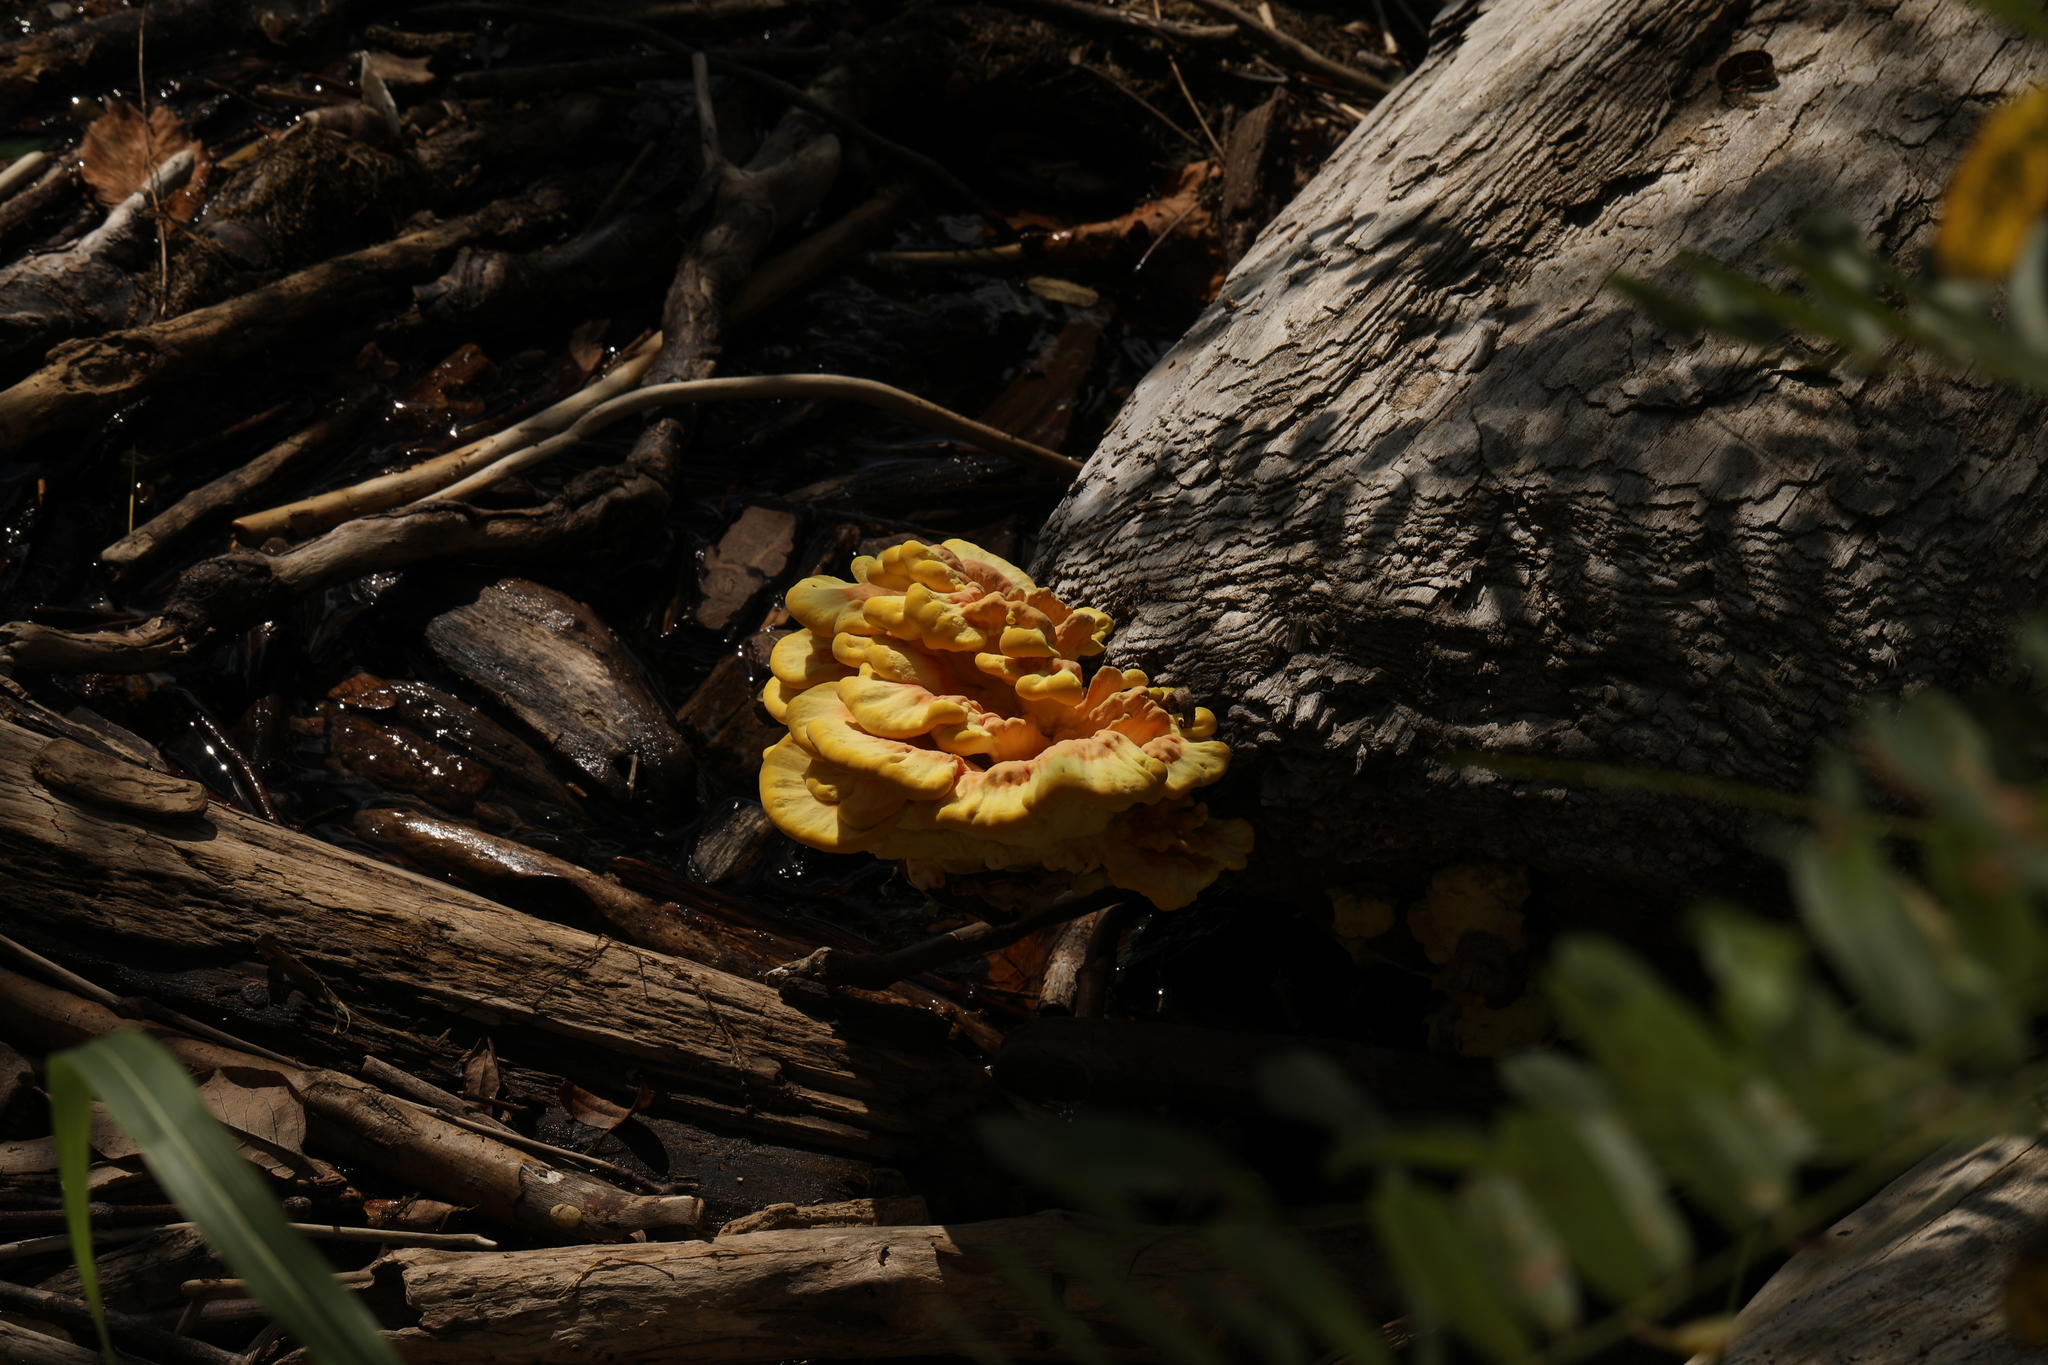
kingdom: Fungi
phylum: Basidiomycota
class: Agaricomycetes
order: Polyporales
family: Laetiporaceae
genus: Laetiporus
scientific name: Laetiporus sulphureus
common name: Chicken of the woods
